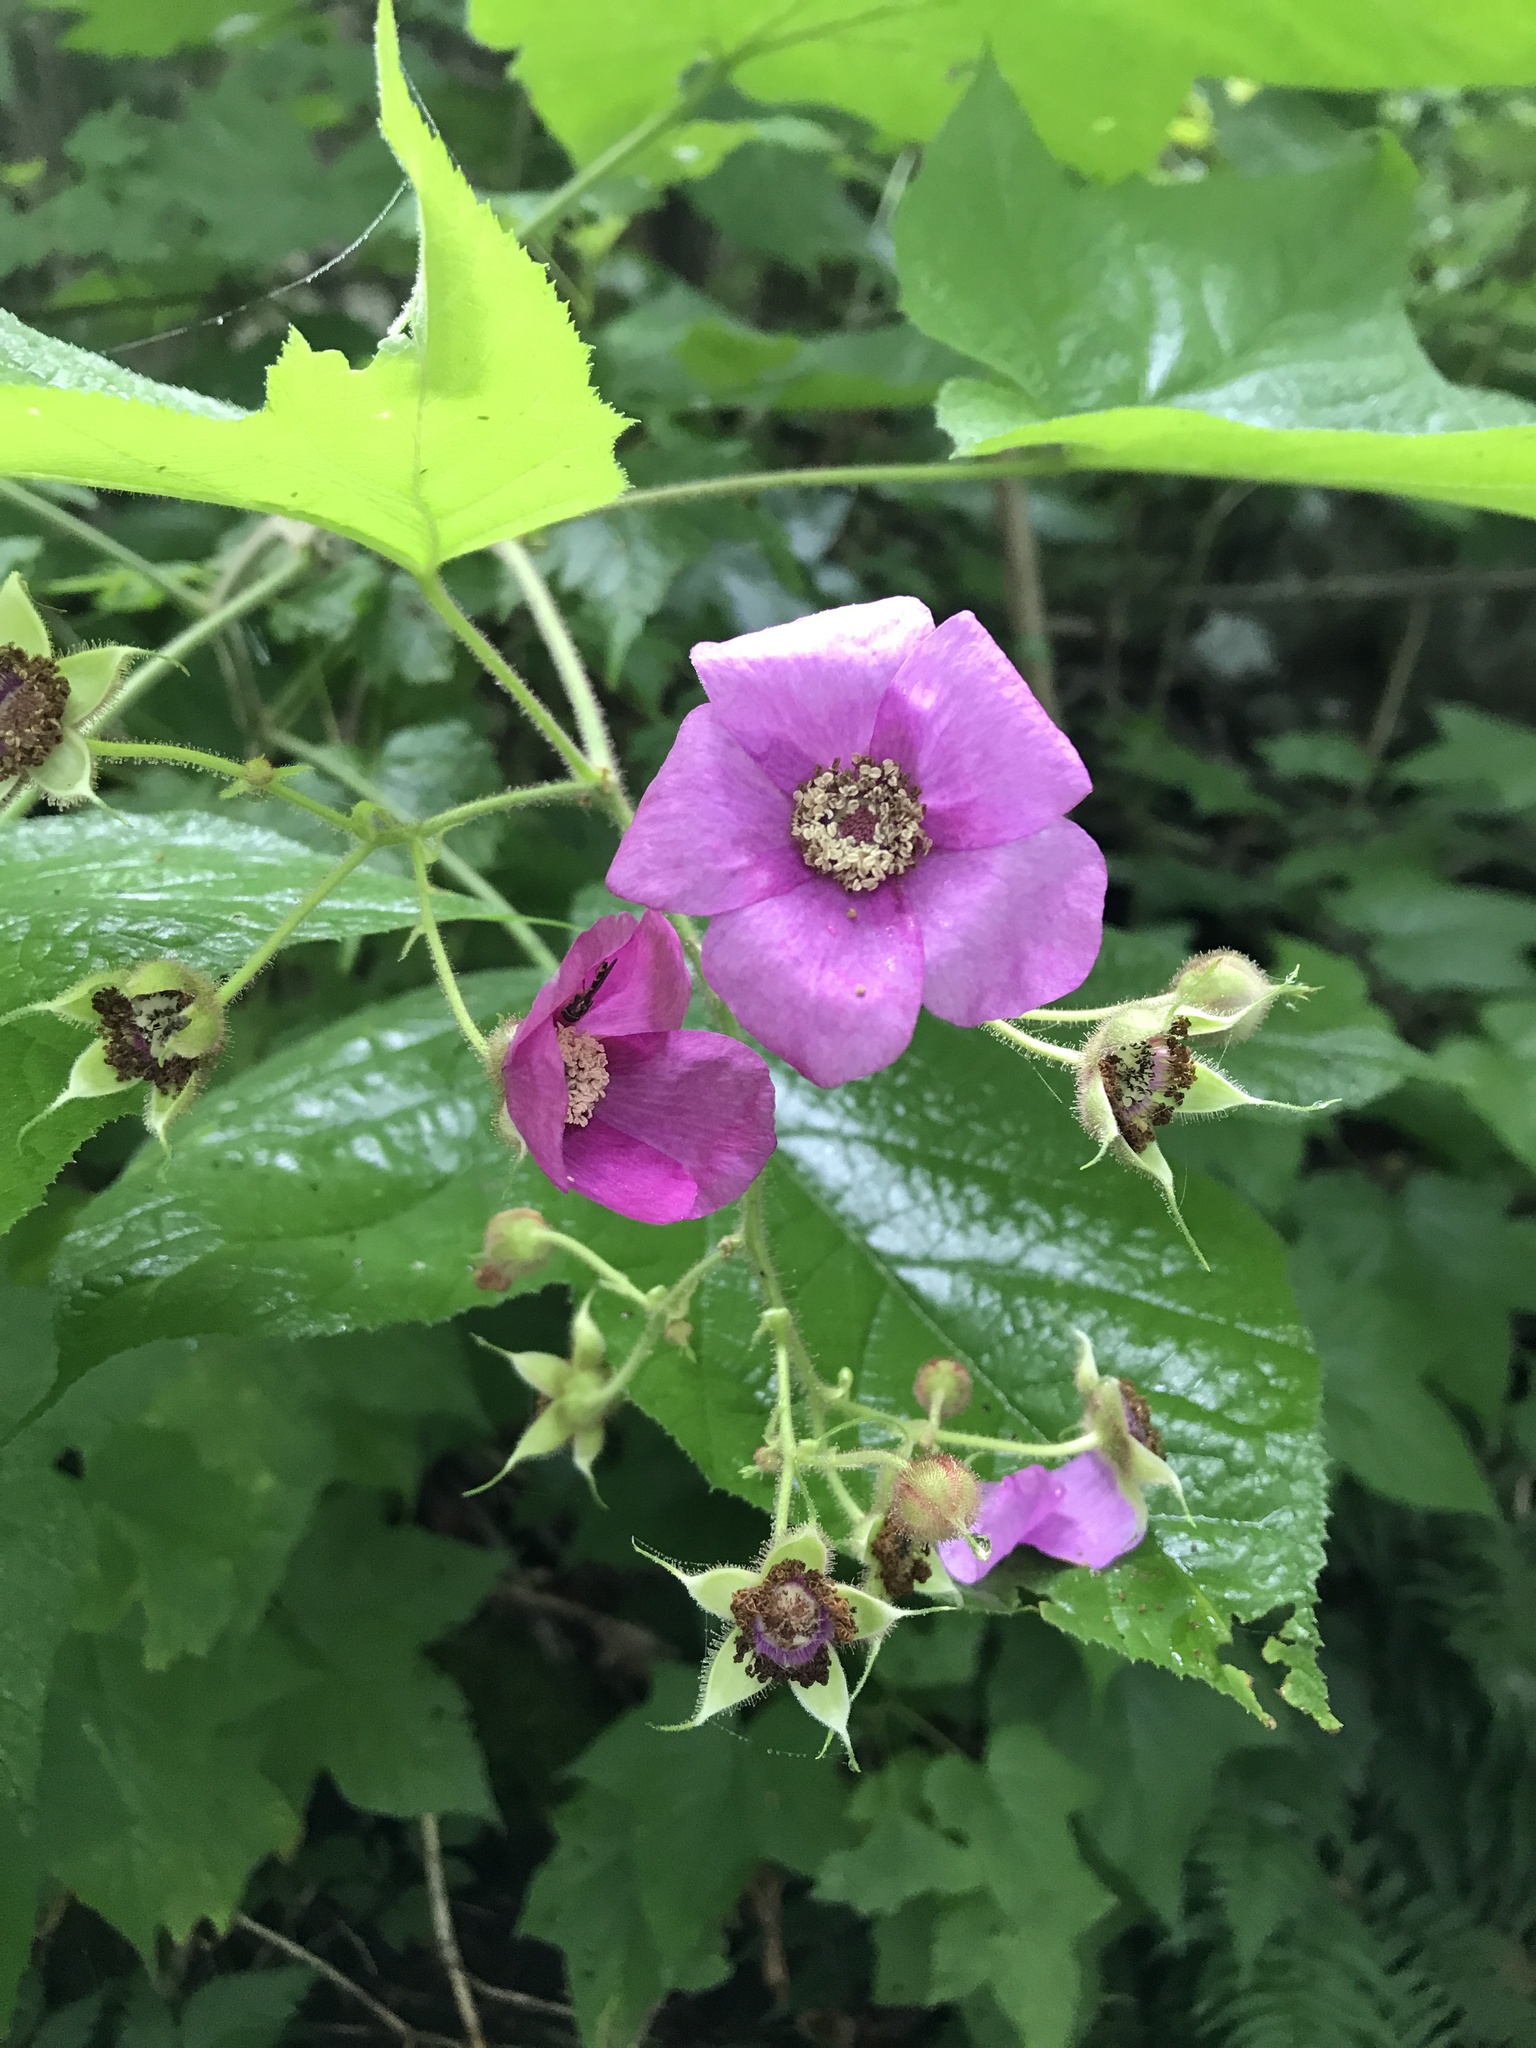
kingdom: Plantae
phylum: Tracheophyta
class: Magnoliopsida
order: Rosales
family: Rosaceae
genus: Rubus
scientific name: Rubus odoratus
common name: Purple-flowered raspberry
